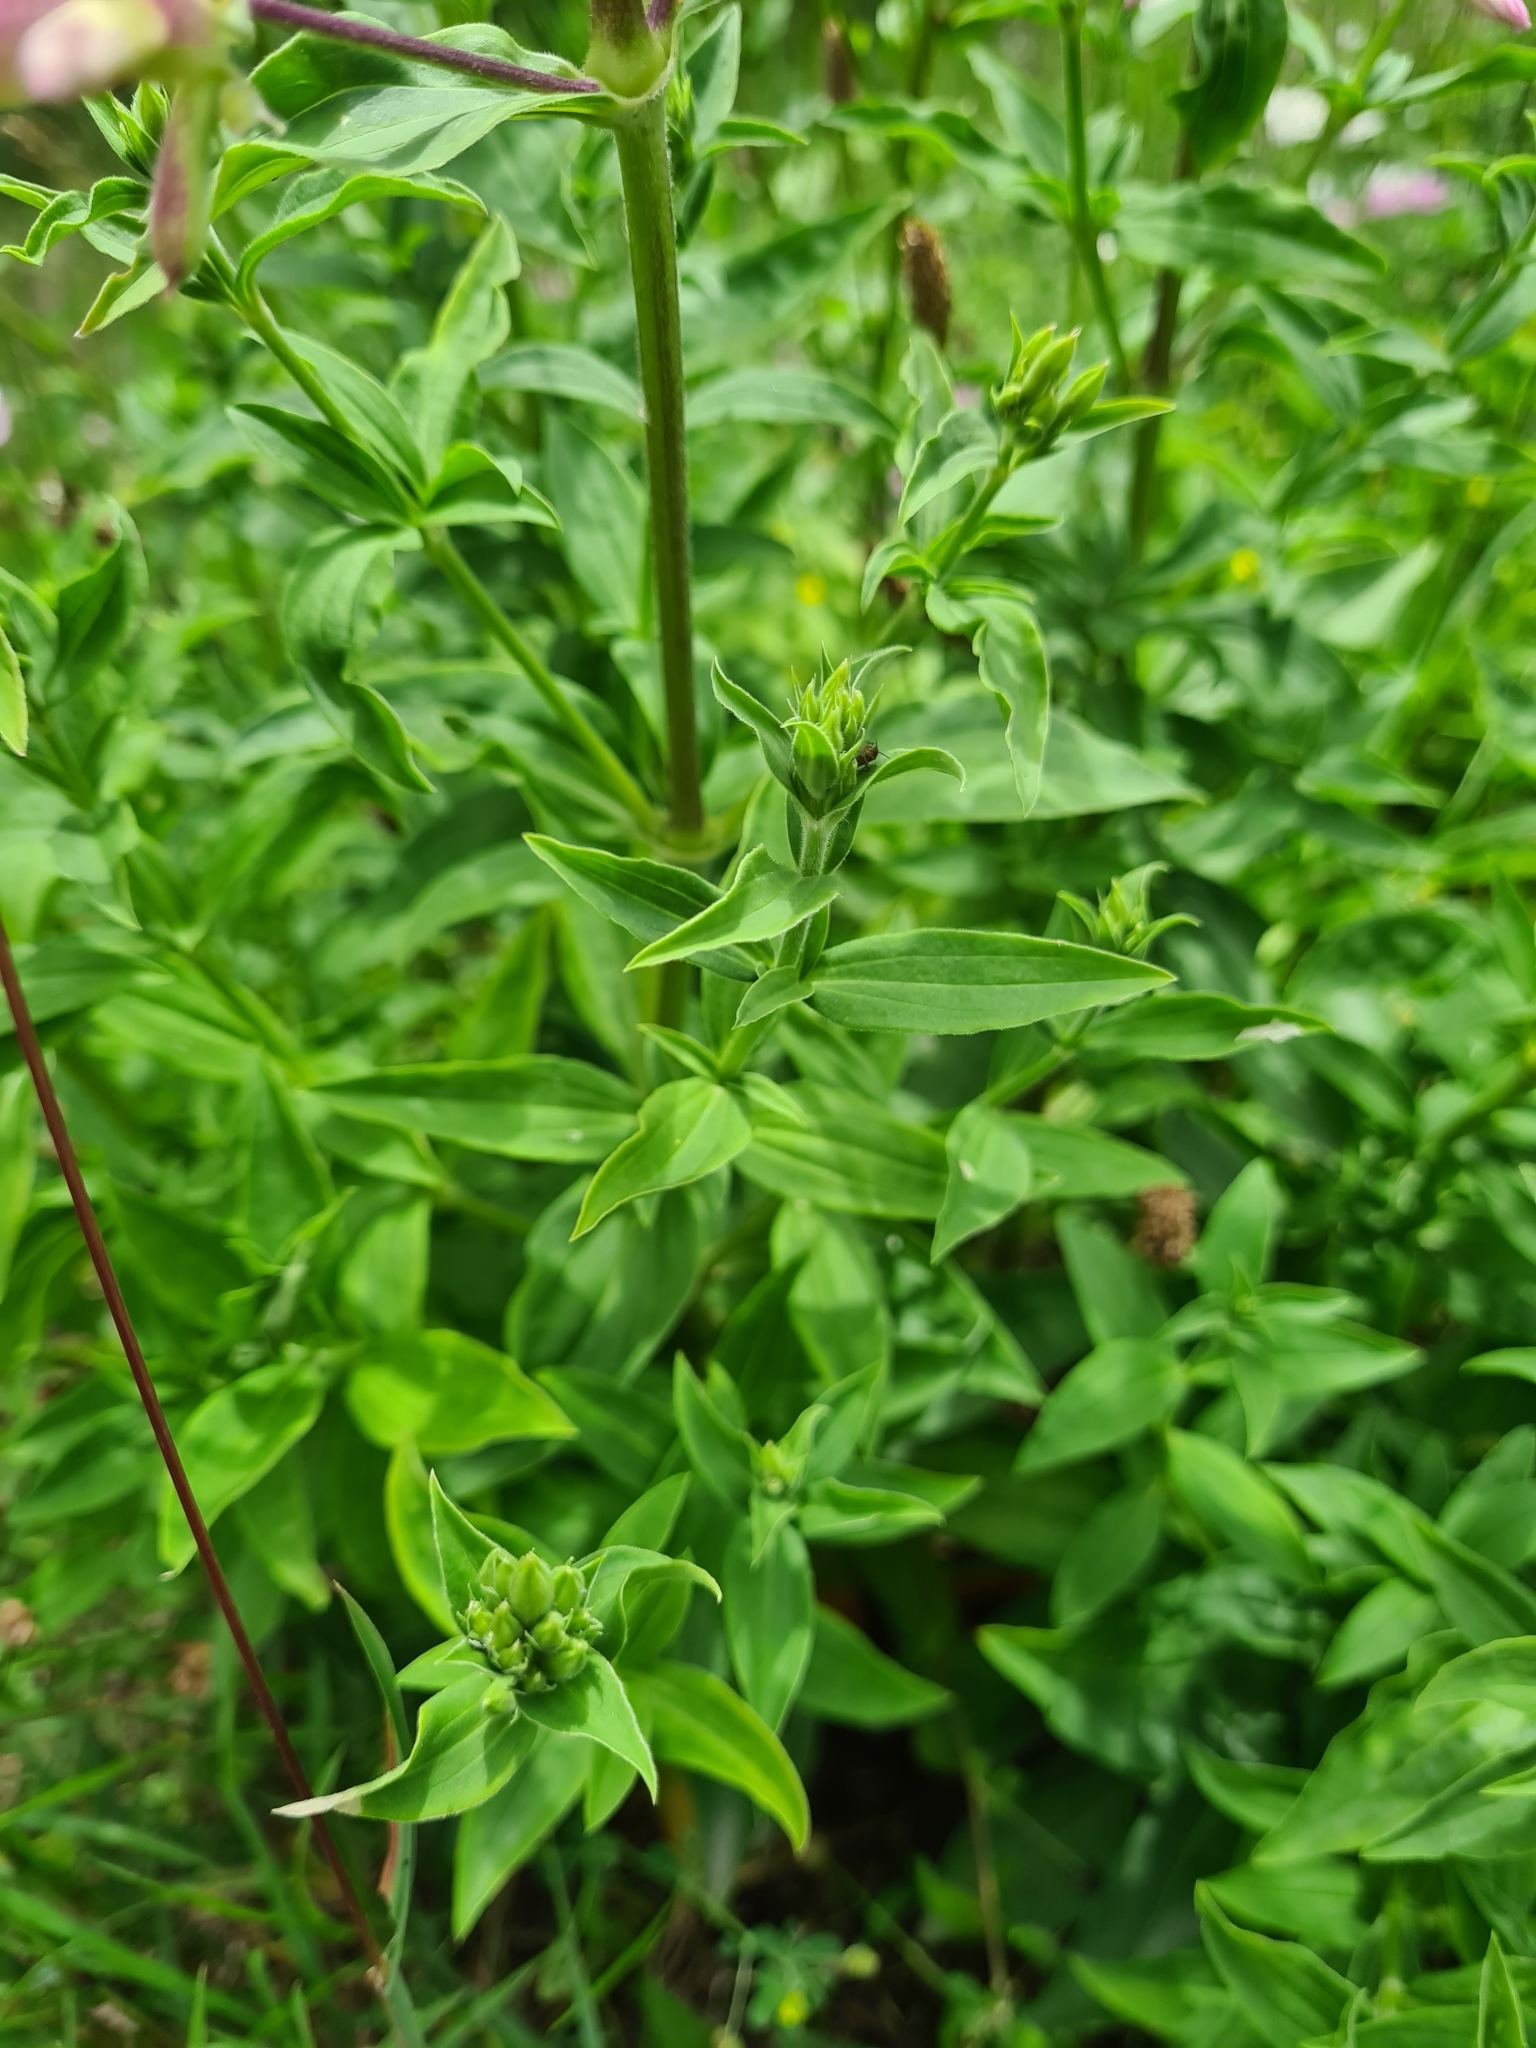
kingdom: Plantae
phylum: Tracheophyta
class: Magnoliopsida
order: Caryophyllales
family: Caryophyllaceae
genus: Saponaria
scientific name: Saponaria officinalis
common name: Soapwort
